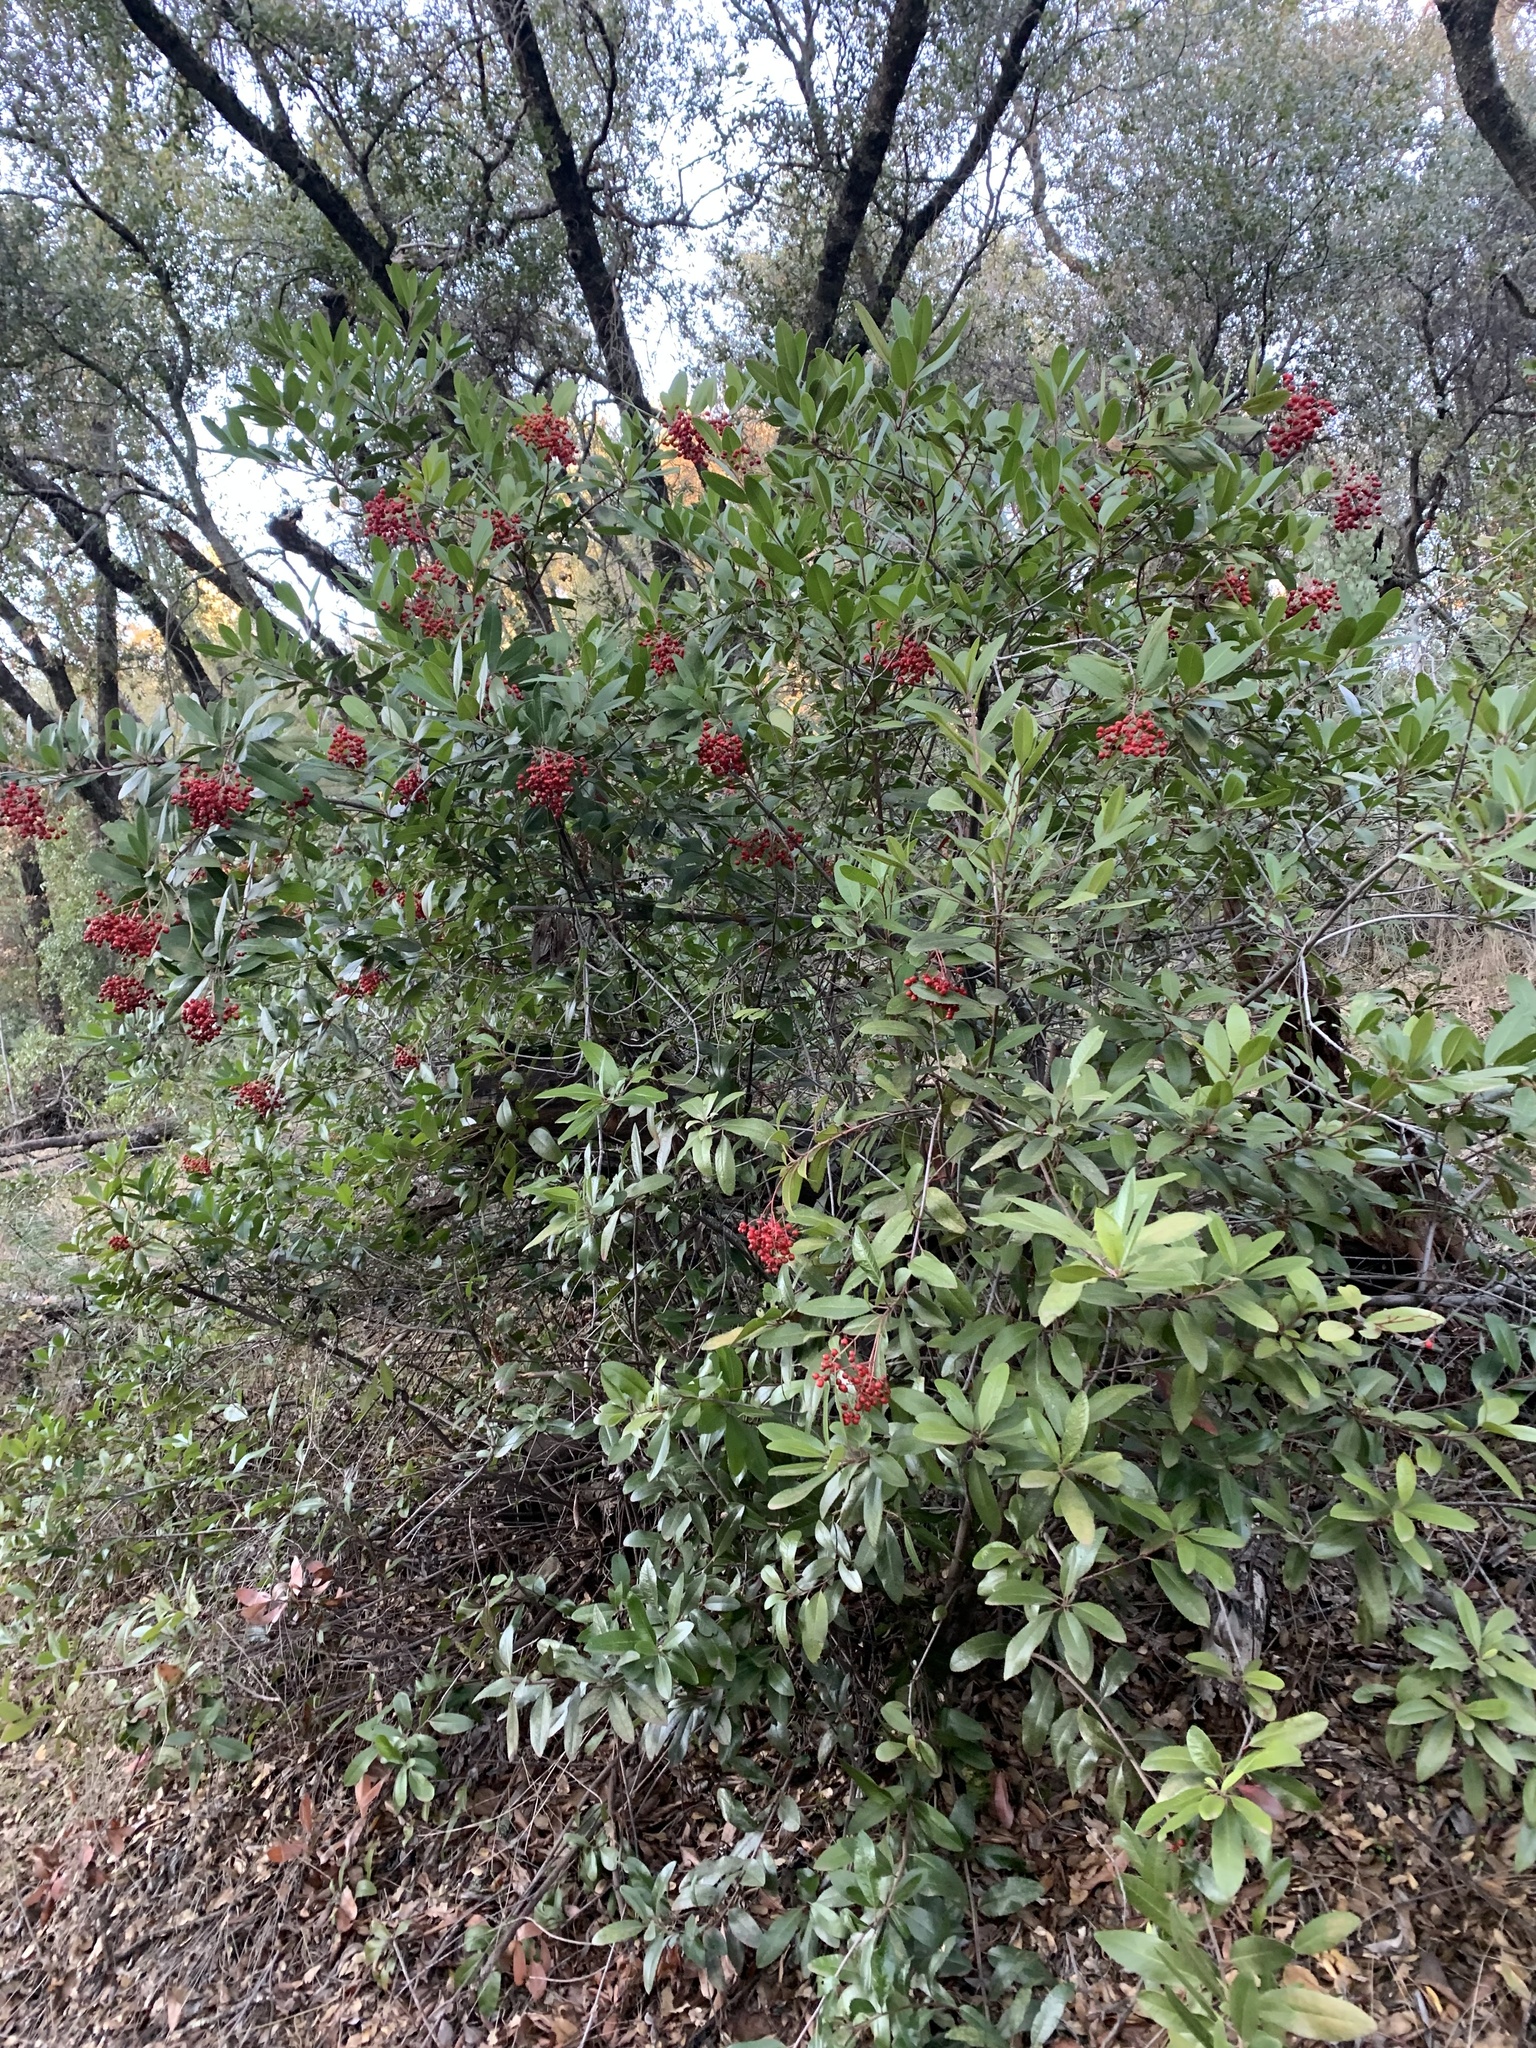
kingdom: Plantae
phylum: Tracheophyta
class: Magnoliopsida
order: Rosales
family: Rosaceae
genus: Heteromeles
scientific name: Heteromeles arbutifolia
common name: California-holly
